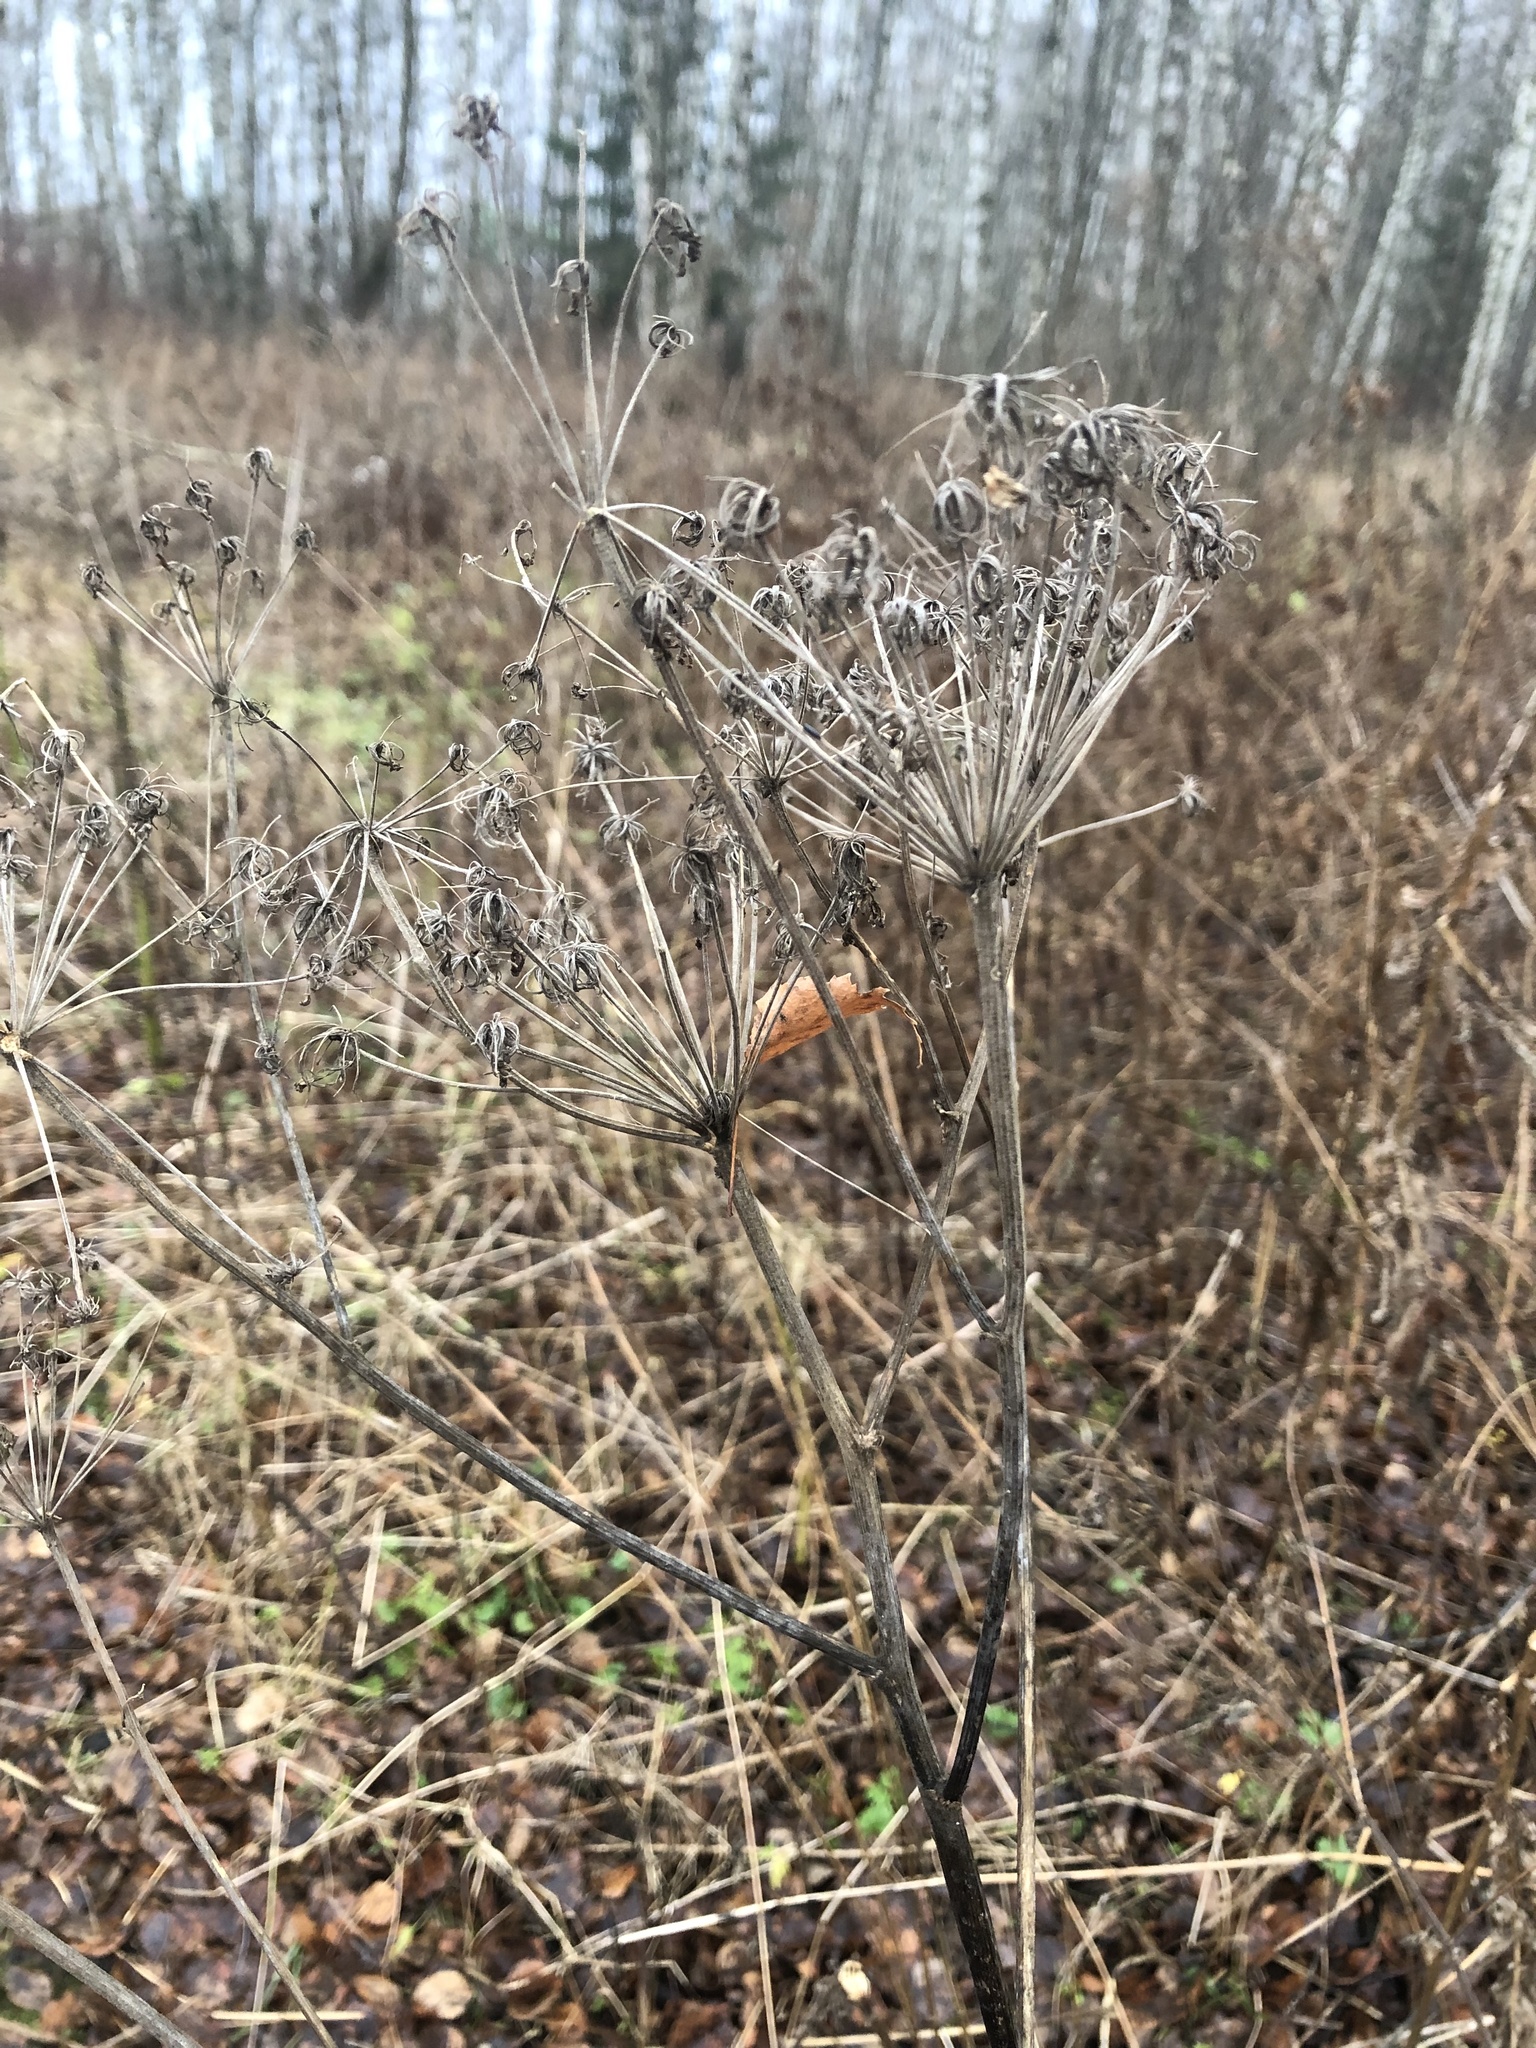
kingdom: Plantae
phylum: Tracheophyta
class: Magnoliopsida
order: Apiales
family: Apiaceae
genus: Angelica
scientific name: Angelica sylvestris
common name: Wild angelica
